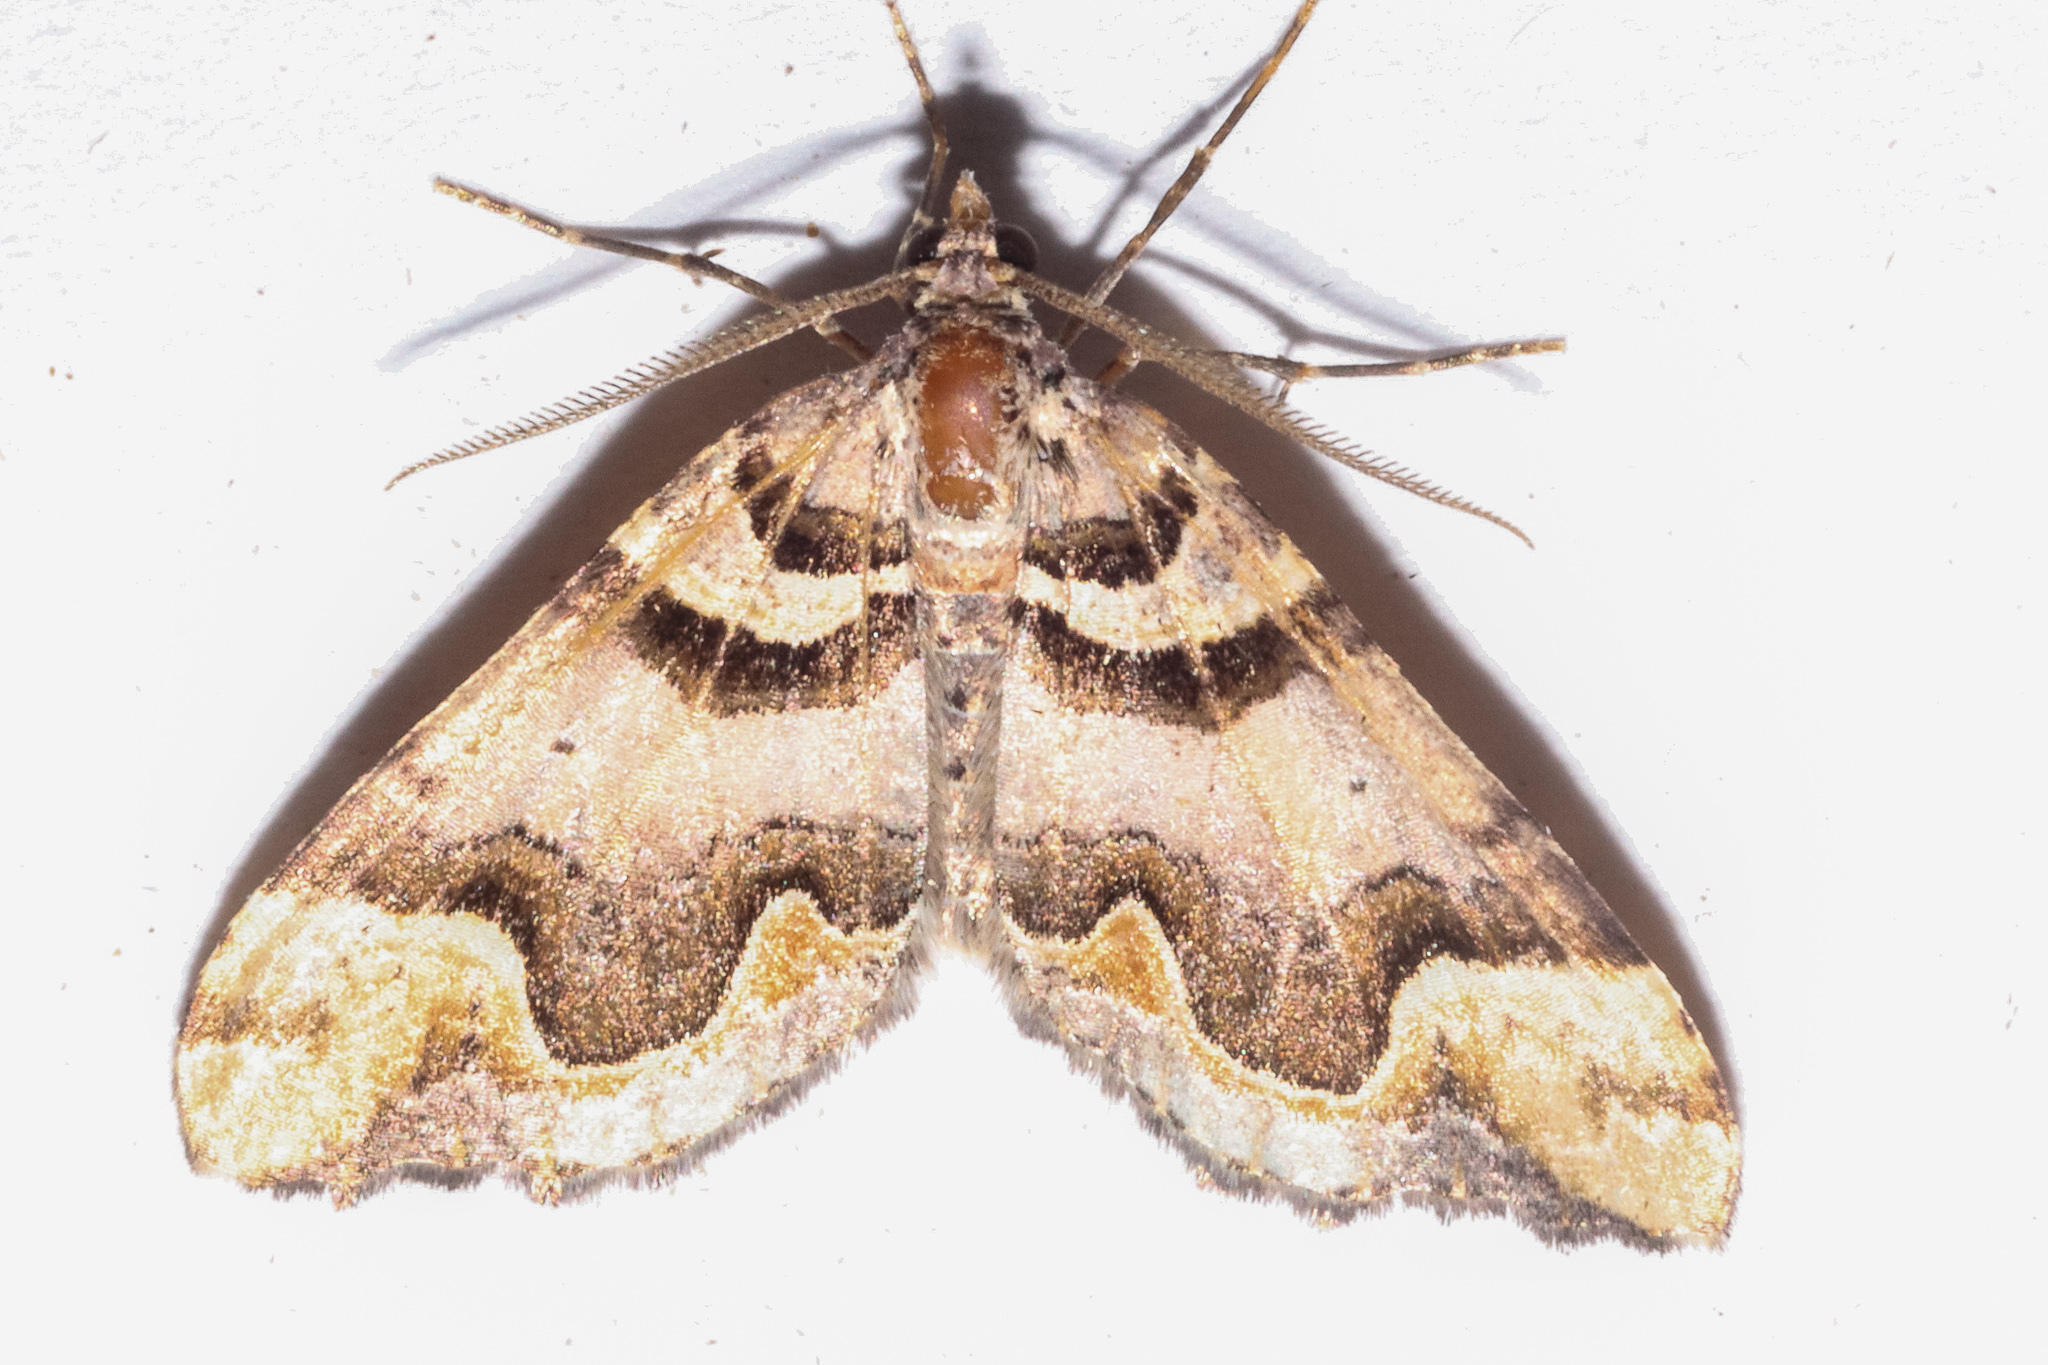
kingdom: Animalia
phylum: Arthropoda
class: Insecta
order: Lepidoptera
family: Geometridae
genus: Asaphodes
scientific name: Asaphodes chlamydota
